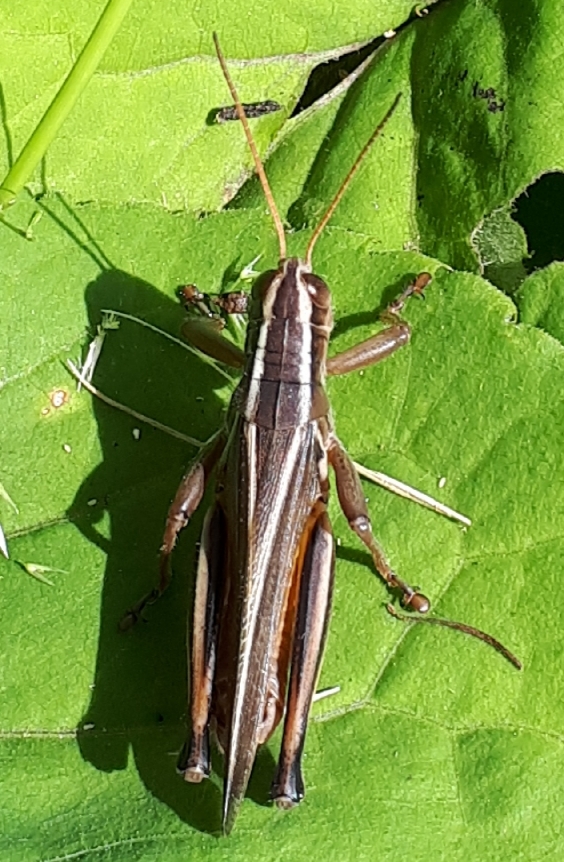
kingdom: Animalia
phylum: Arthropoda
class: Insecta
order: Orthoptera
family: Acrididae
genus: Melanoplus
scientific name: Melanoplus bivittatus
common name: Two-striped grasshopper
